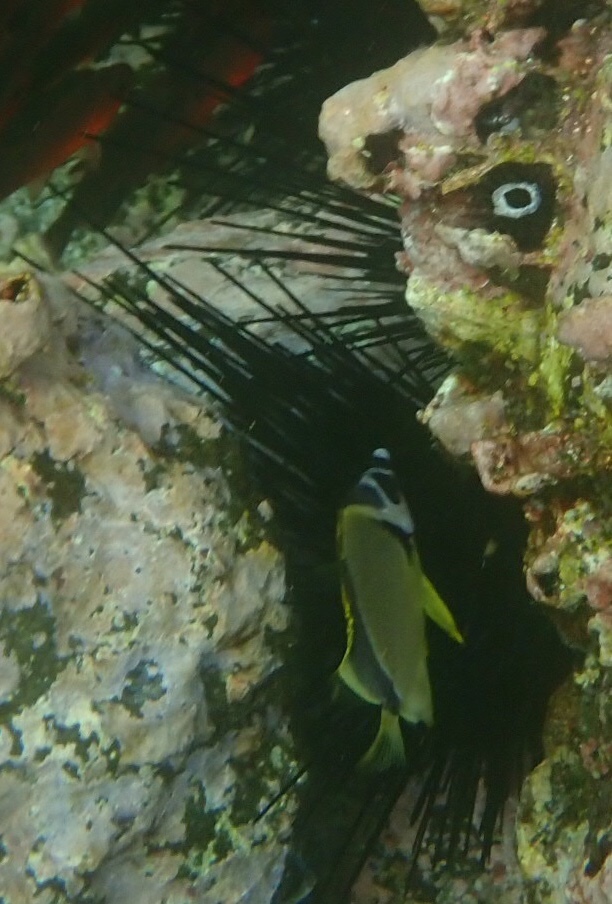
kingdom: Animalia
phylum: Echinodermata
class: Echinoidea
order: Diadematoida
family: Diadematidae
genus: Diadema
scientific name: Diadema mexicanum
